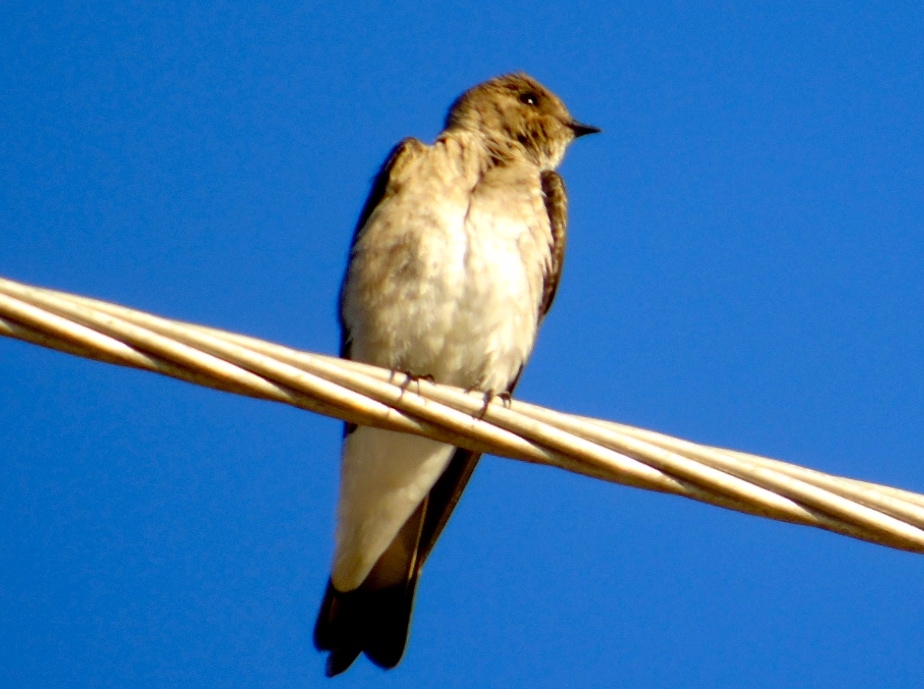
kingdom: Animalia
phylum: Chordata
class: Aves
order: Passeriformes
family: Hirundinidae
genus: Stelgidopteryx
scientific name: Stelgidopteryx serripennis
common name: Northern rough-winged swallow
